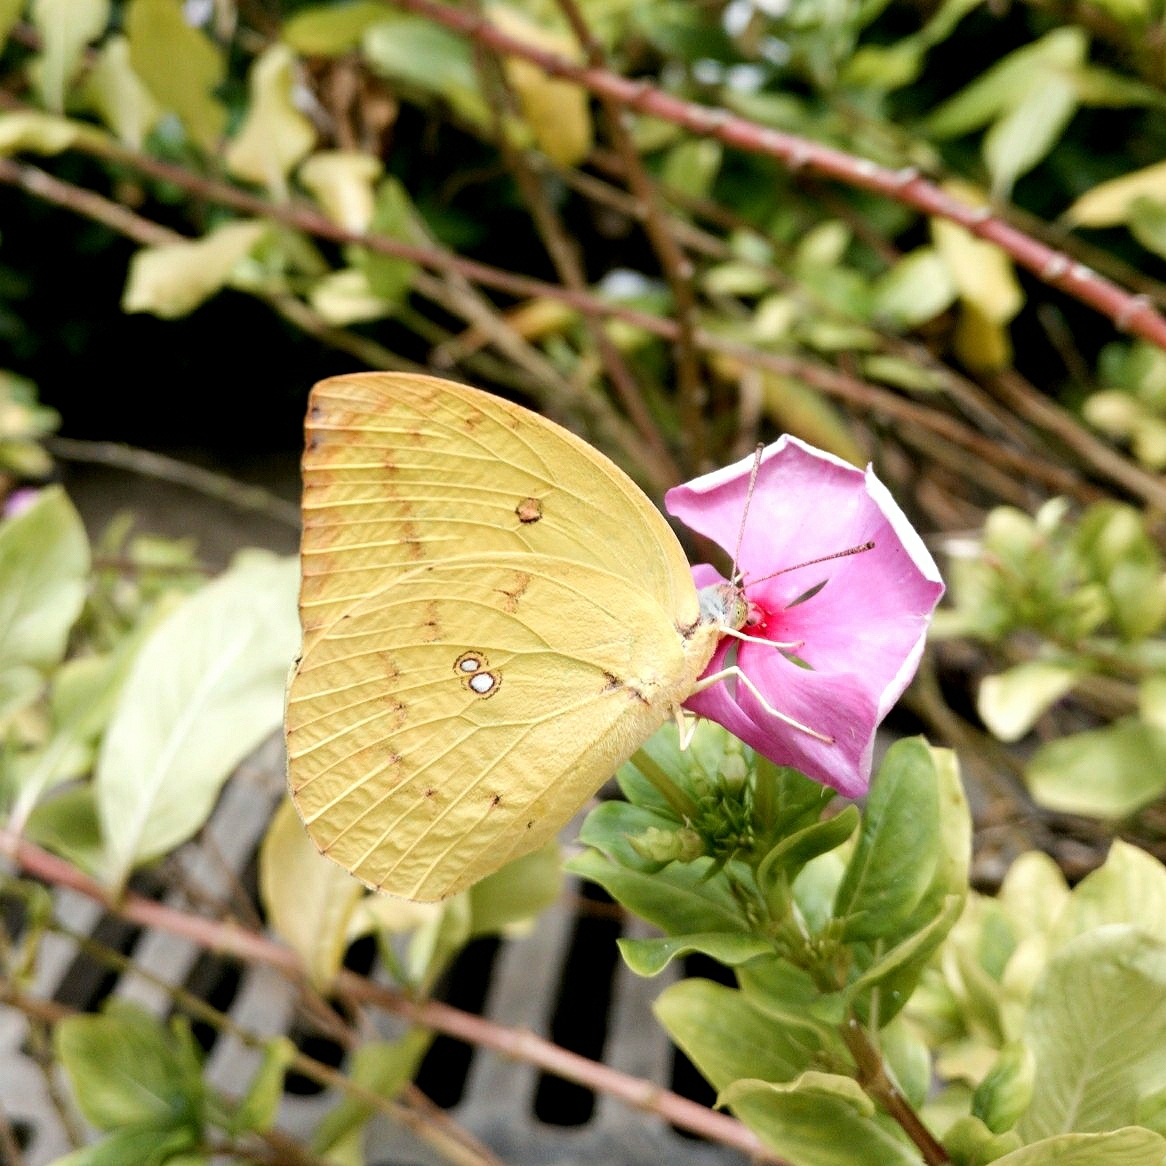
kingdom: Animalia
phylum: Arthropoda
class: Insecta
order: Lepidoptera
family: Pieridae
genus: Catopsilia
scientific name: Catopsilia pomona
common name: Common emigrant
